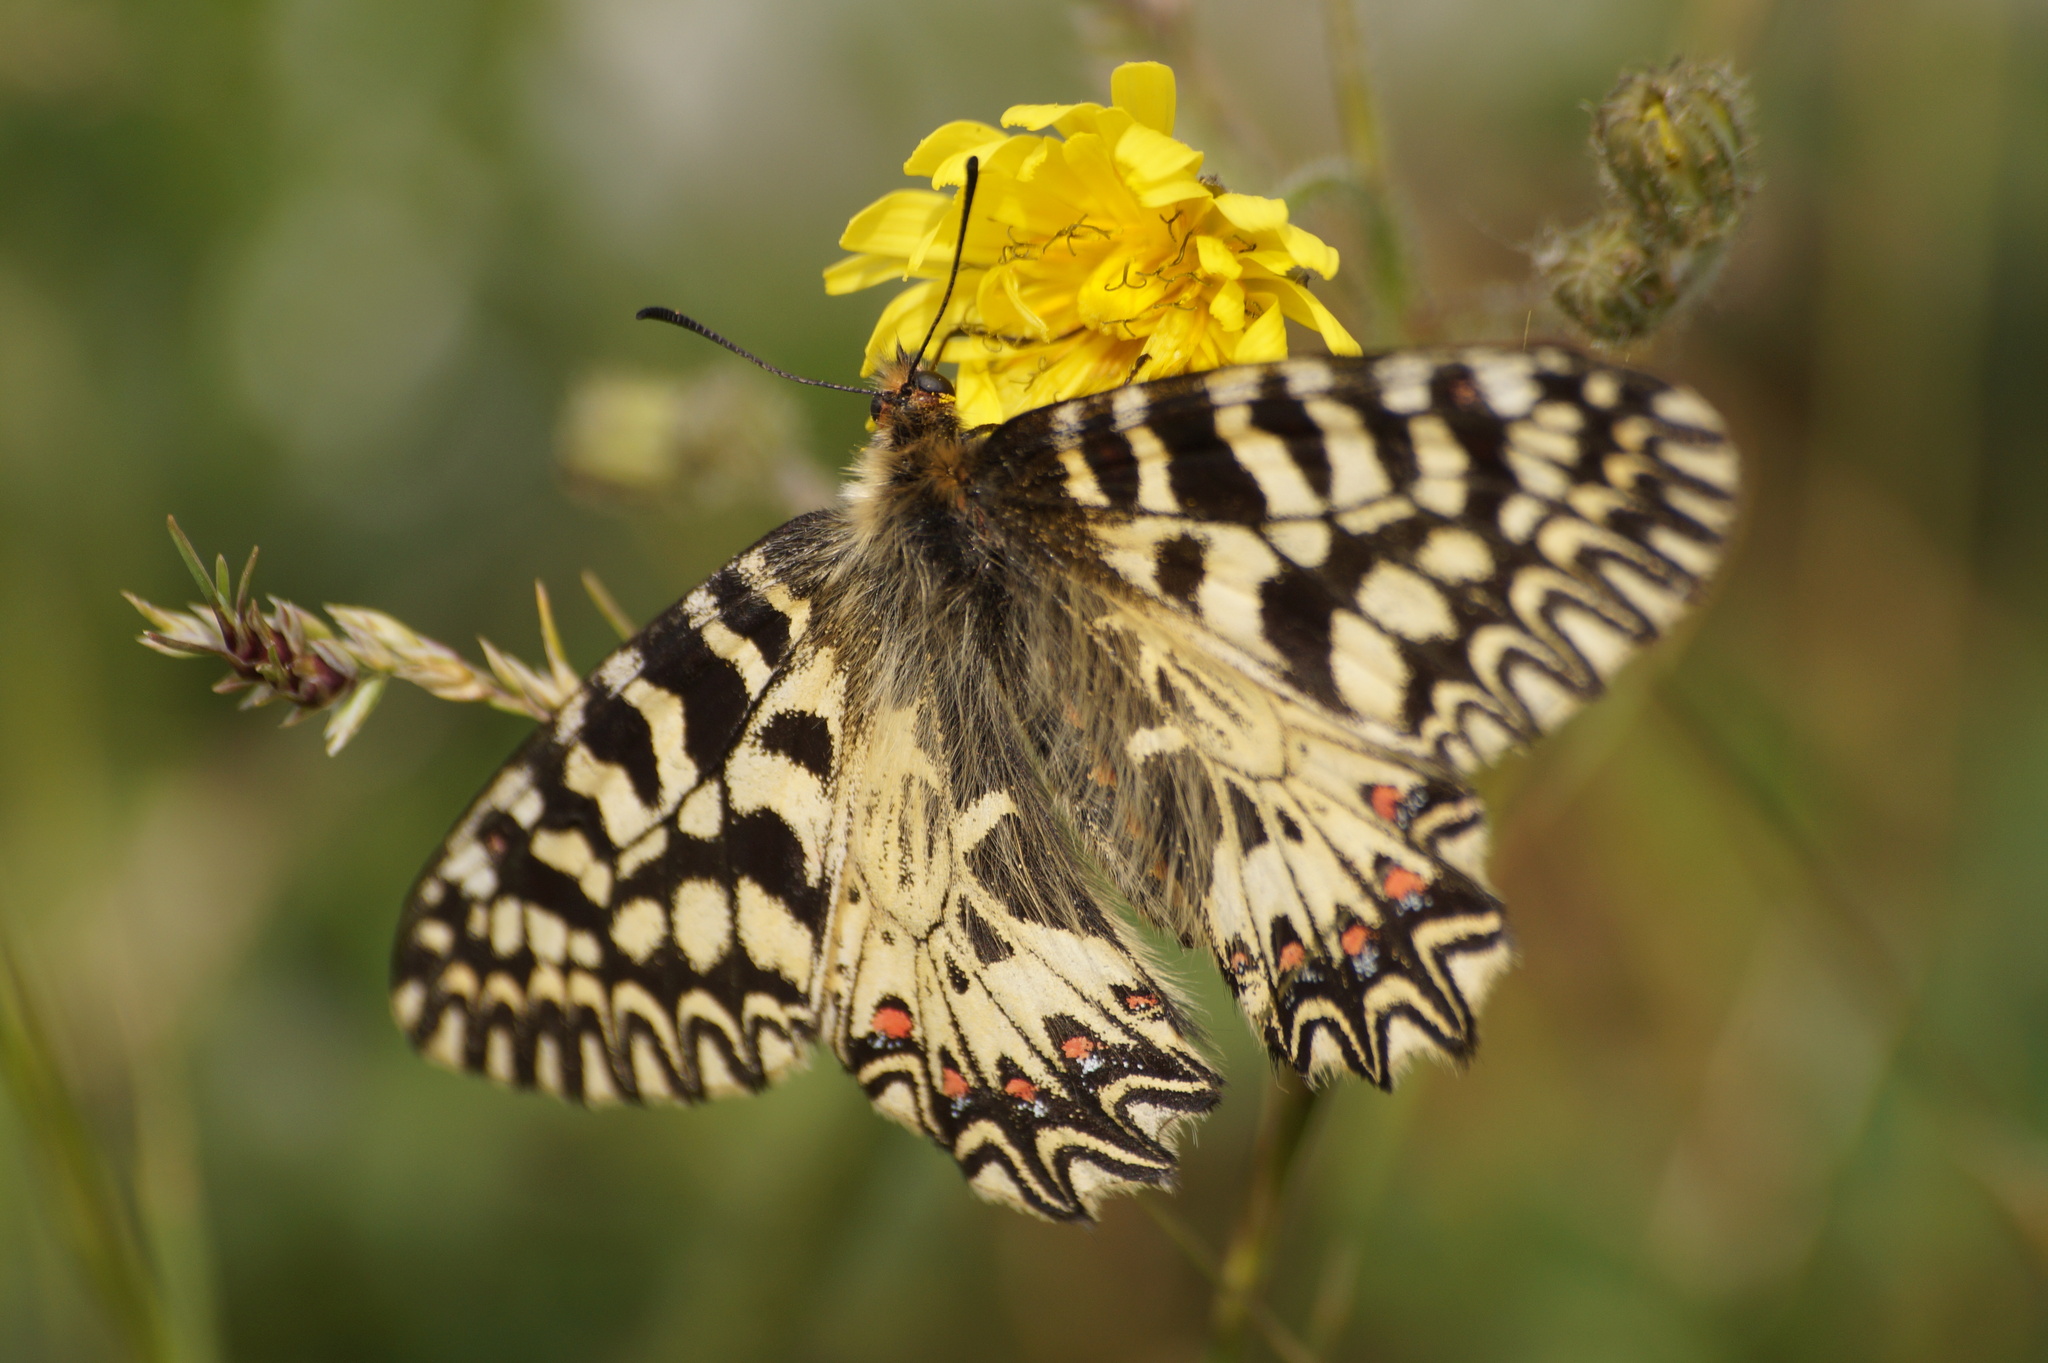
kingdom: Animalia
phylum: Arthropoda
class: Insecta
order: Lepidoptera
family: Papilionidae
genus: Zerynthia
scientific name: Zerynthia polyxena
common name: Southern festoon
